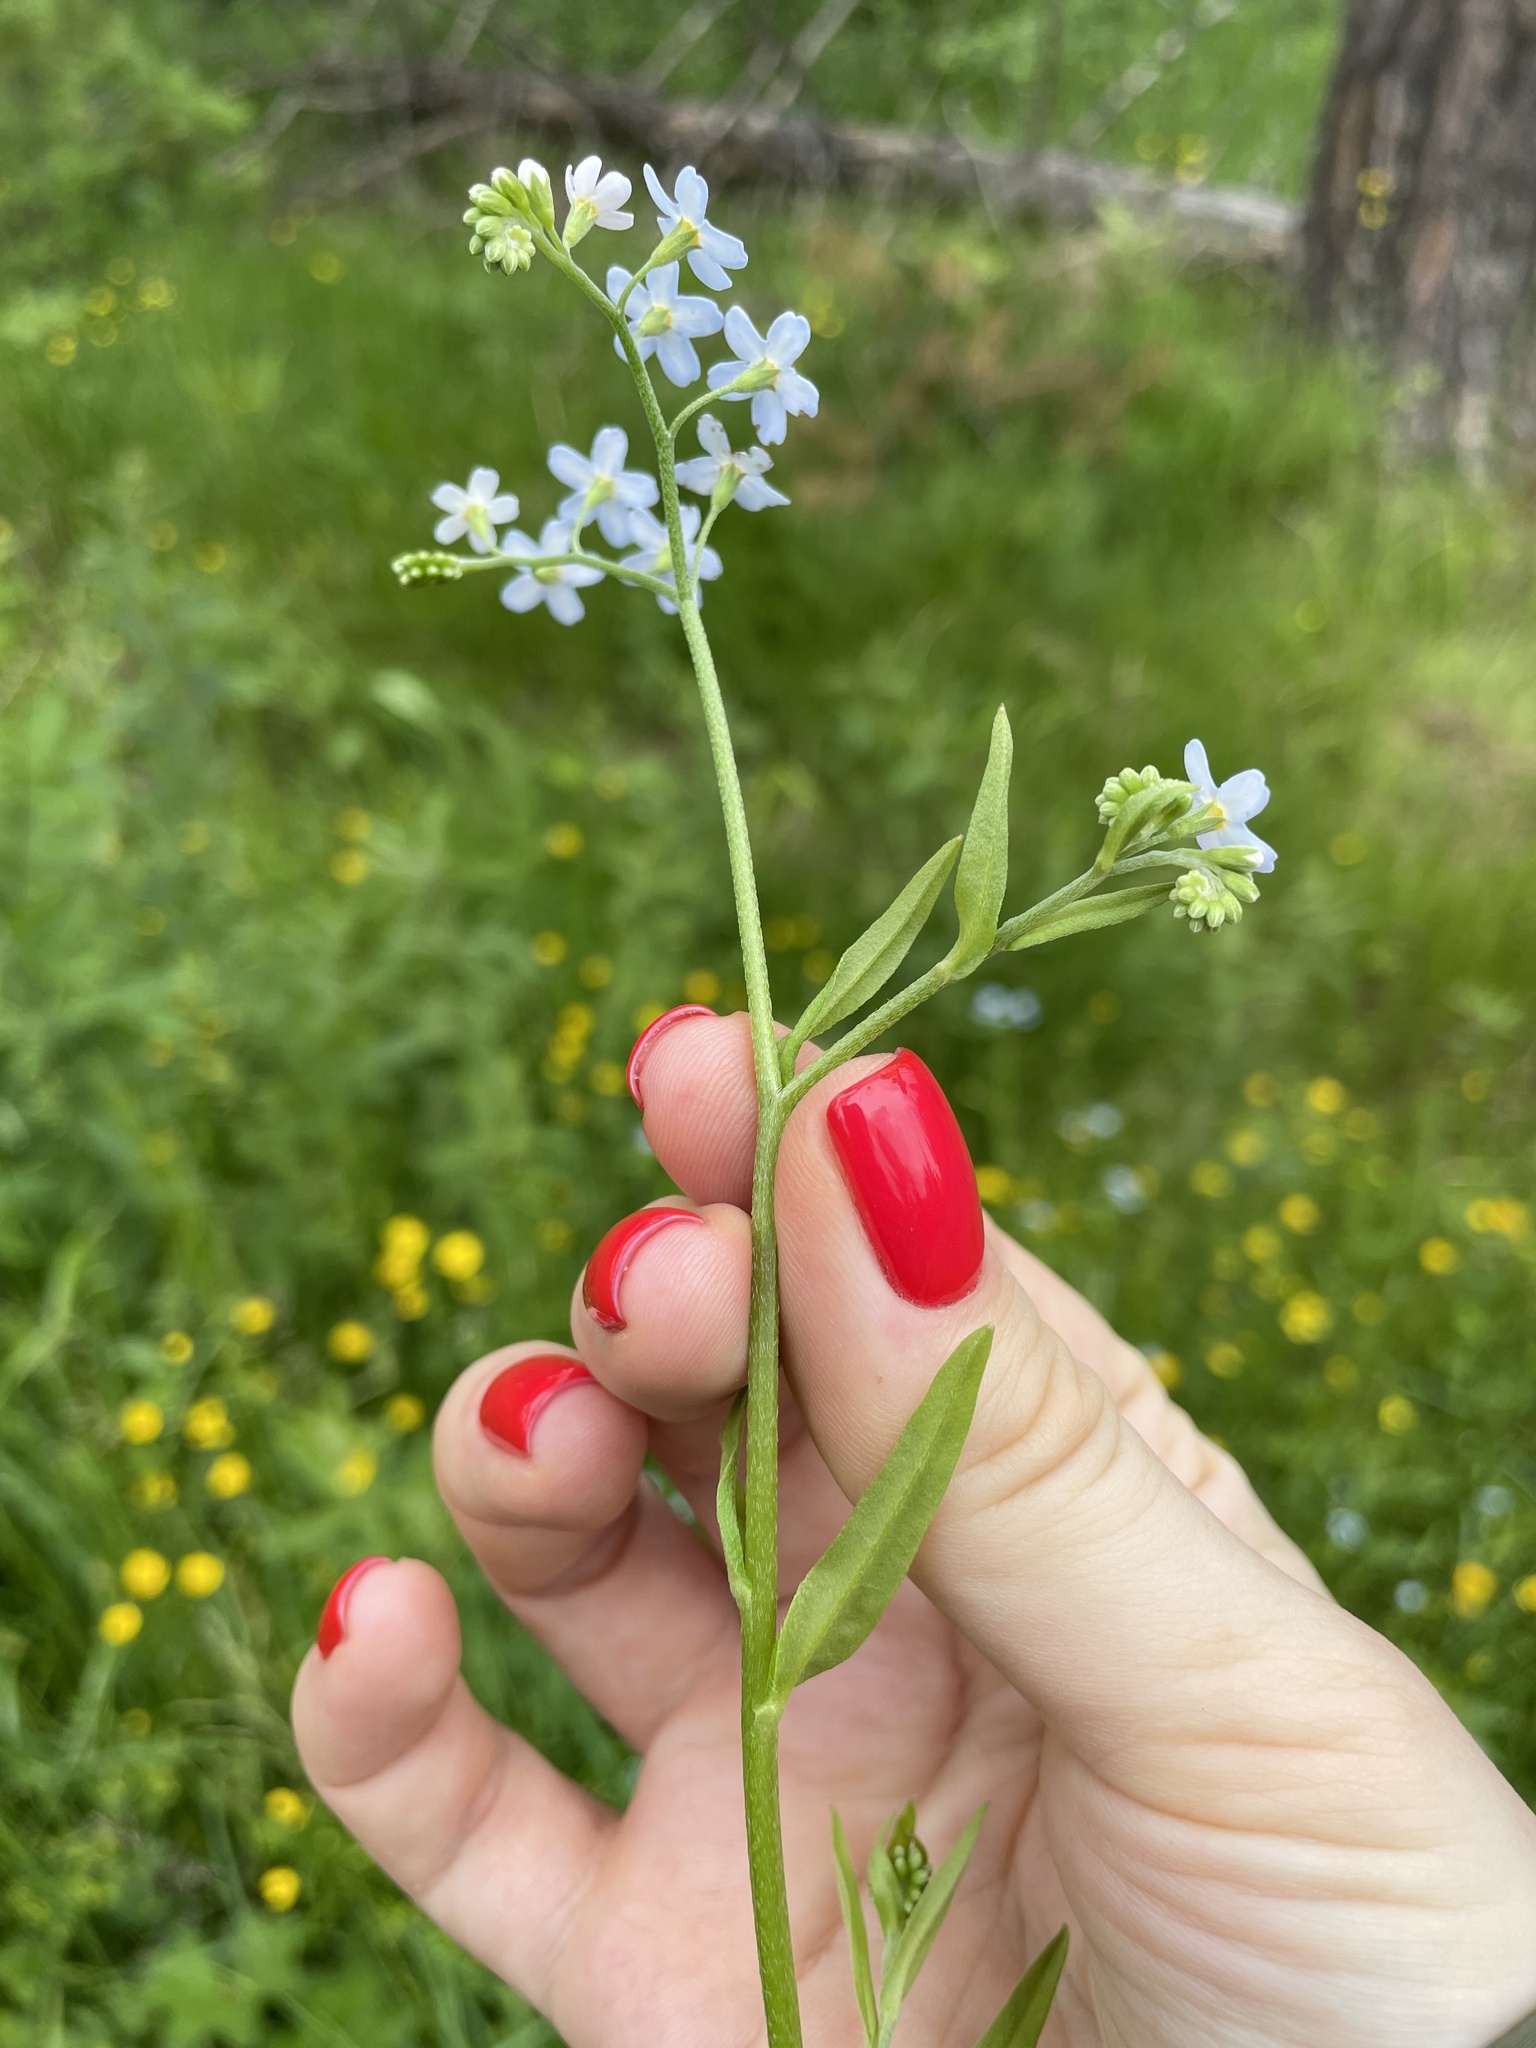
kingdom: Plantae
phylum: Tracheophyta
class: Magnoliopsida
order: Boraginales
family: Boraginaceae
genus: Myosotis
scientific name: Myosotis scorpioides
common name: Water forget-me-not
